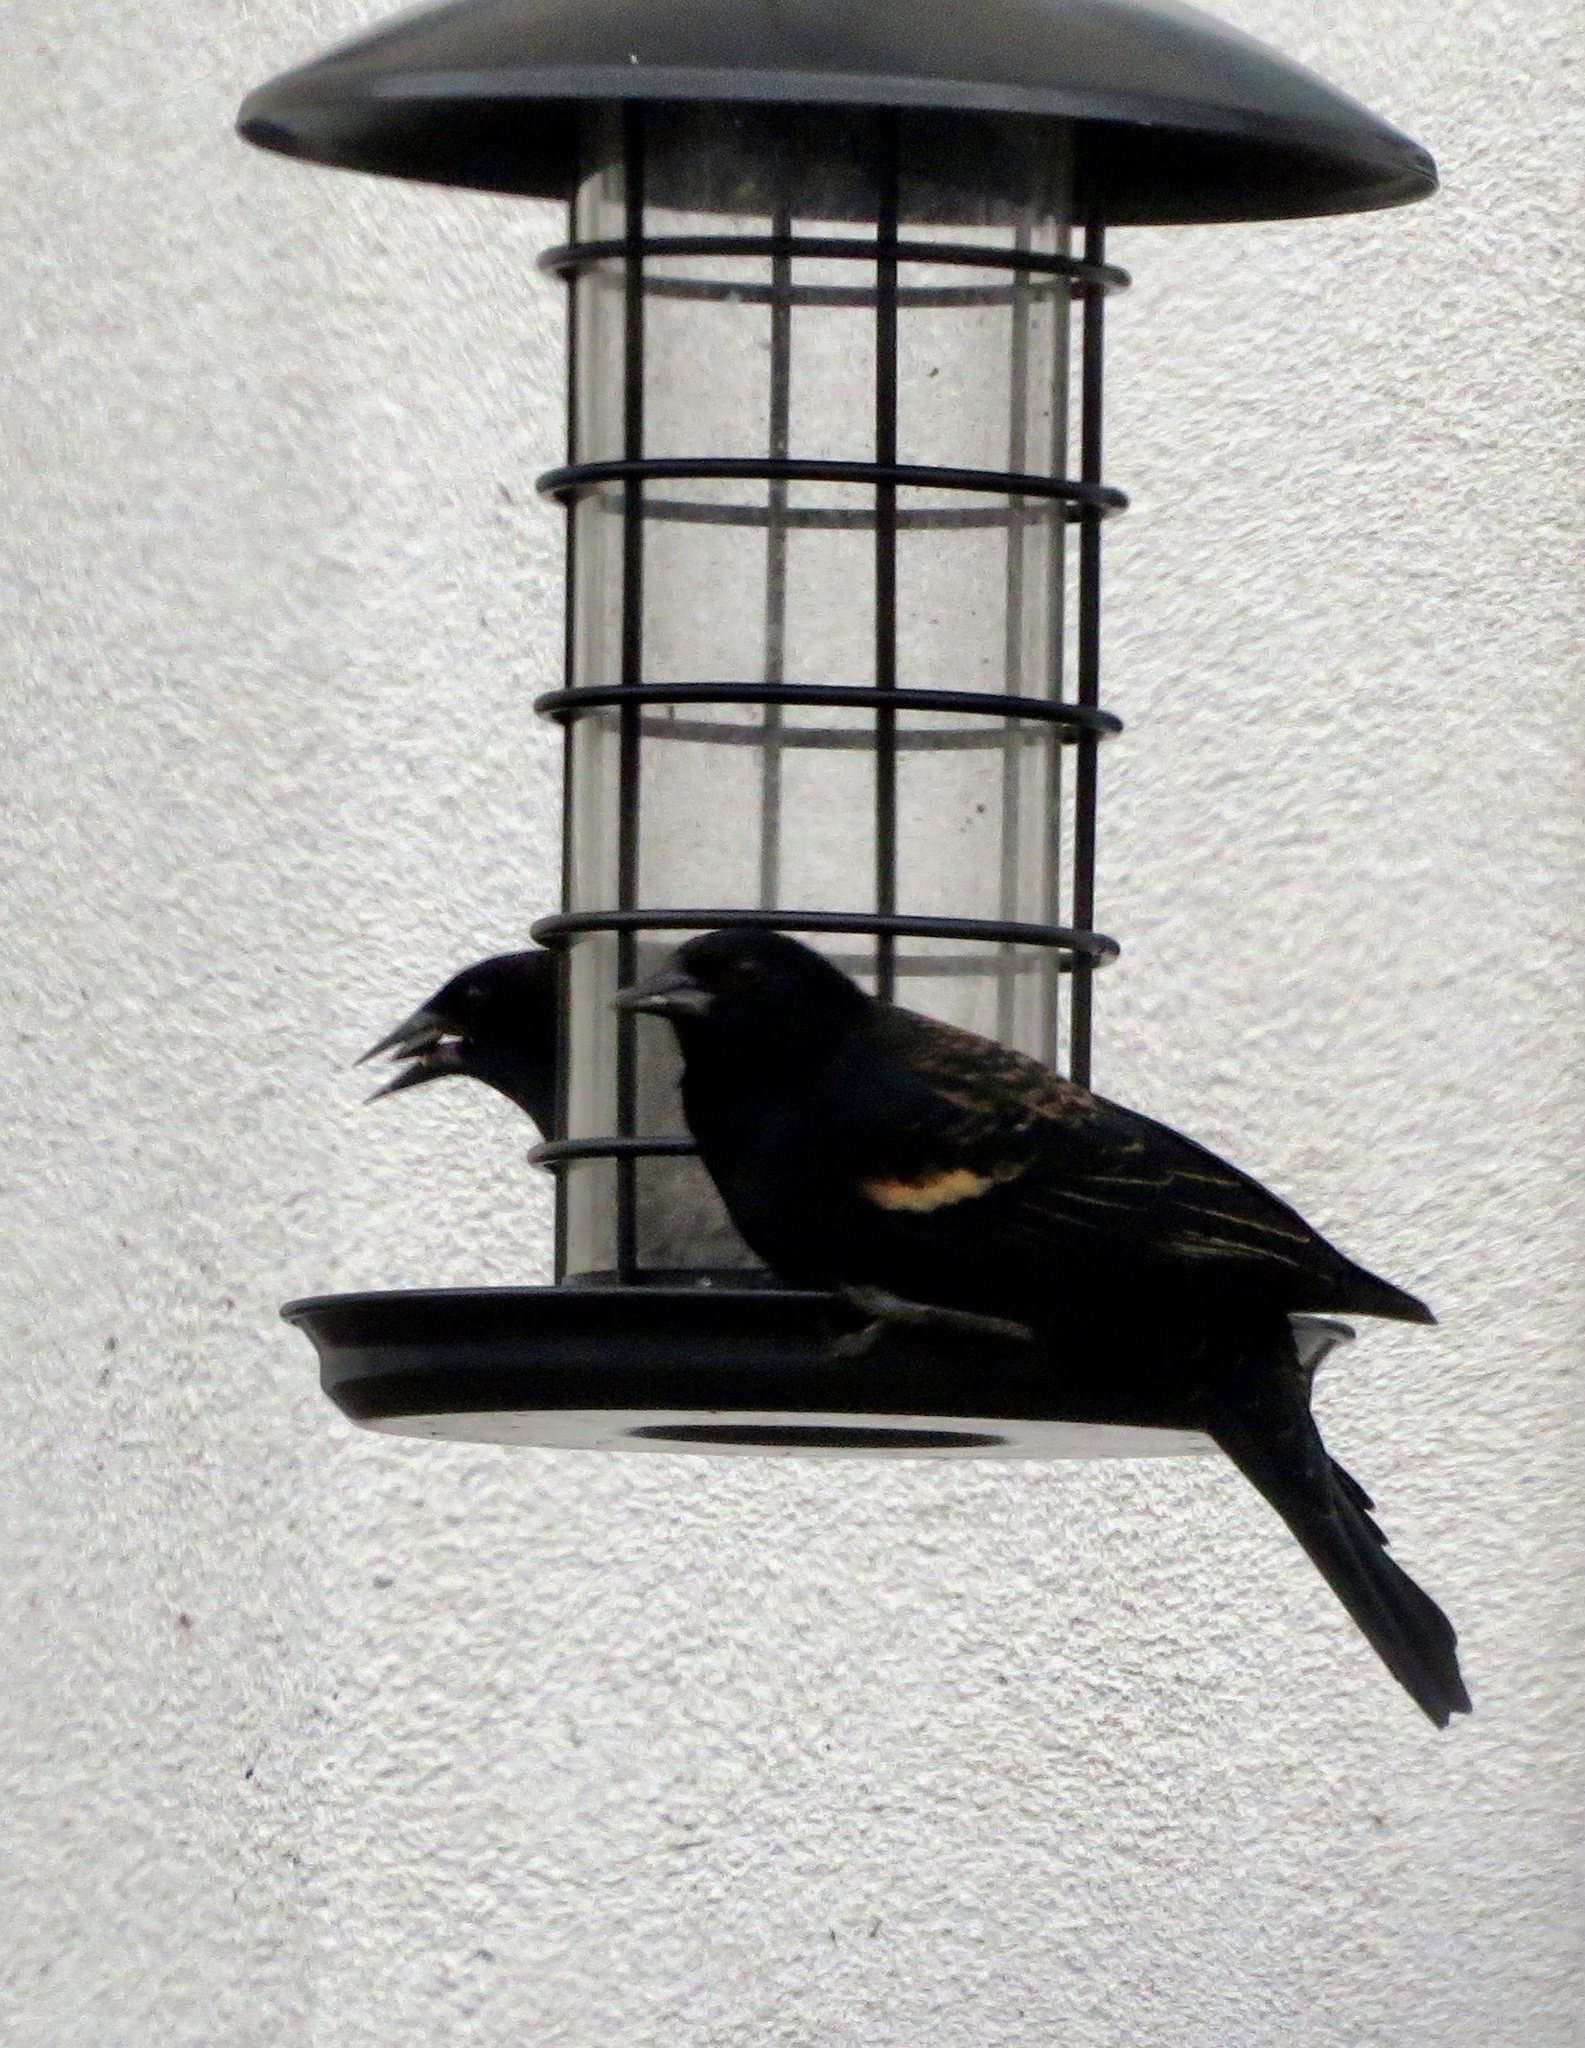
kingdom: Animalia
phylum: Chordata
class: Aves
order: Passeriformes
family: Icteridae
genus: Agelaius
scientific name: Agelaius phoeniceus
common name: Red-winged blackbird
